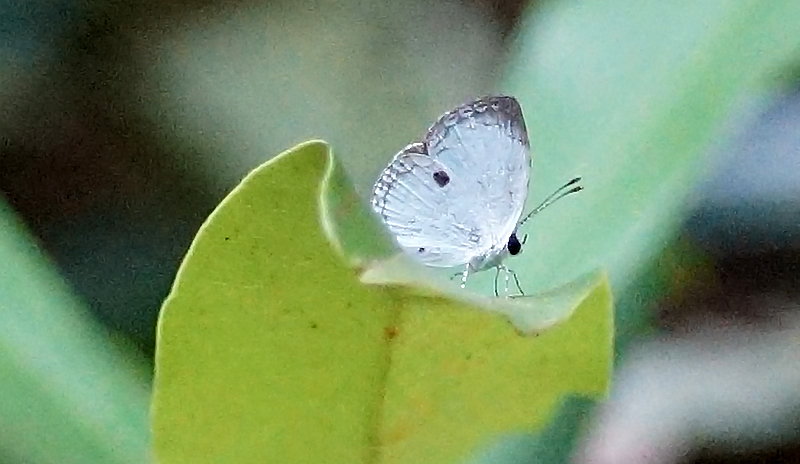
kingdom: Animalia
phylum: Arthropoda
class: Insecta
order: Lepidoptera
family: Lycaenidae
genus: Neopithecops
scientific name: Neopithecops zalmora
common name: Quaker
